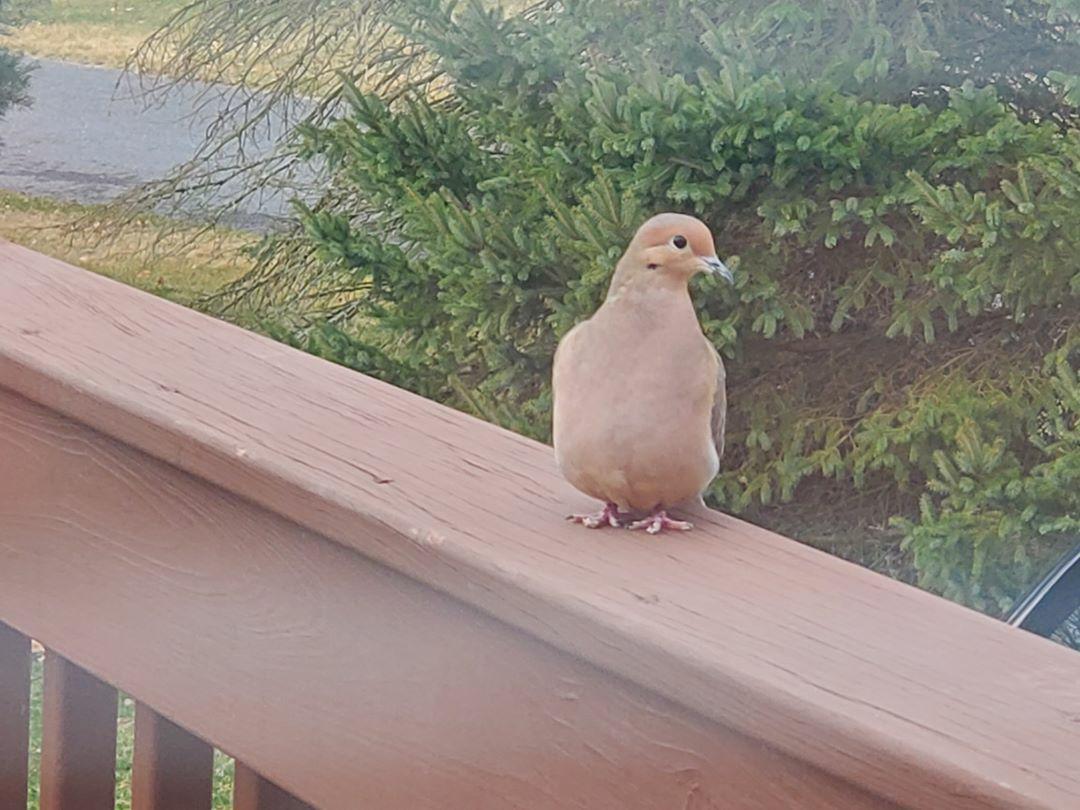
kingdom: Animalia
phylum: Chordata
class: Aves
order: Columbiformes
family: Columbidae
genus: Zenaida
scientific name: Zenaida macroura
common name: Mourning dove
